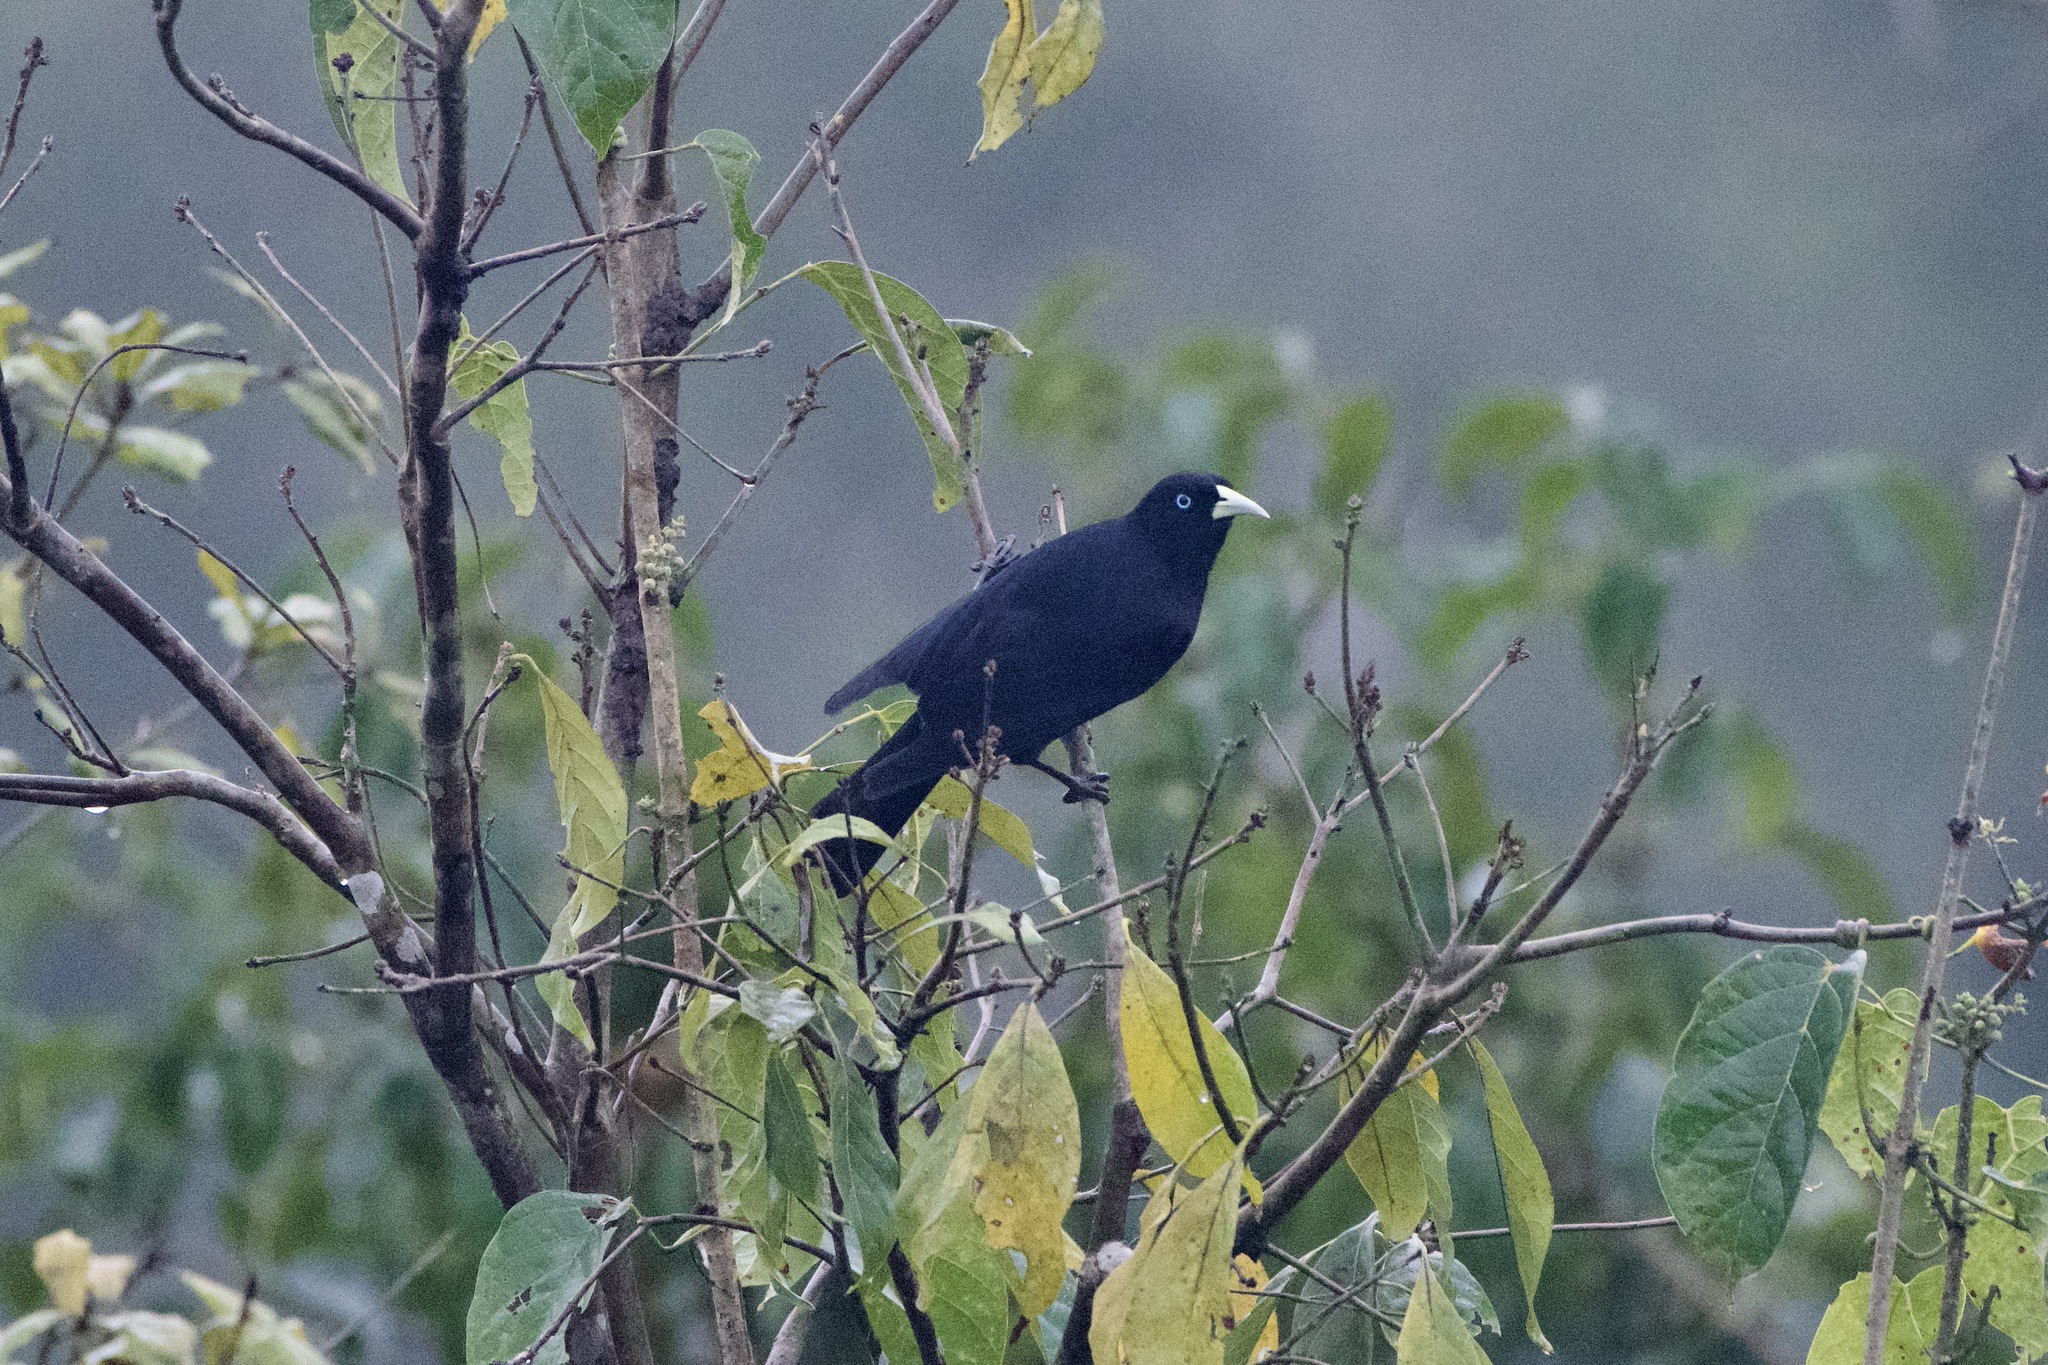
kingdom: Animalia
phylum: Chordata
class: Aves
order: Passeriformes
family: Icteridae
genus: Cacicus
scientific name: Cacicus uropygialis
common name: Scarlet-rumped cacique
